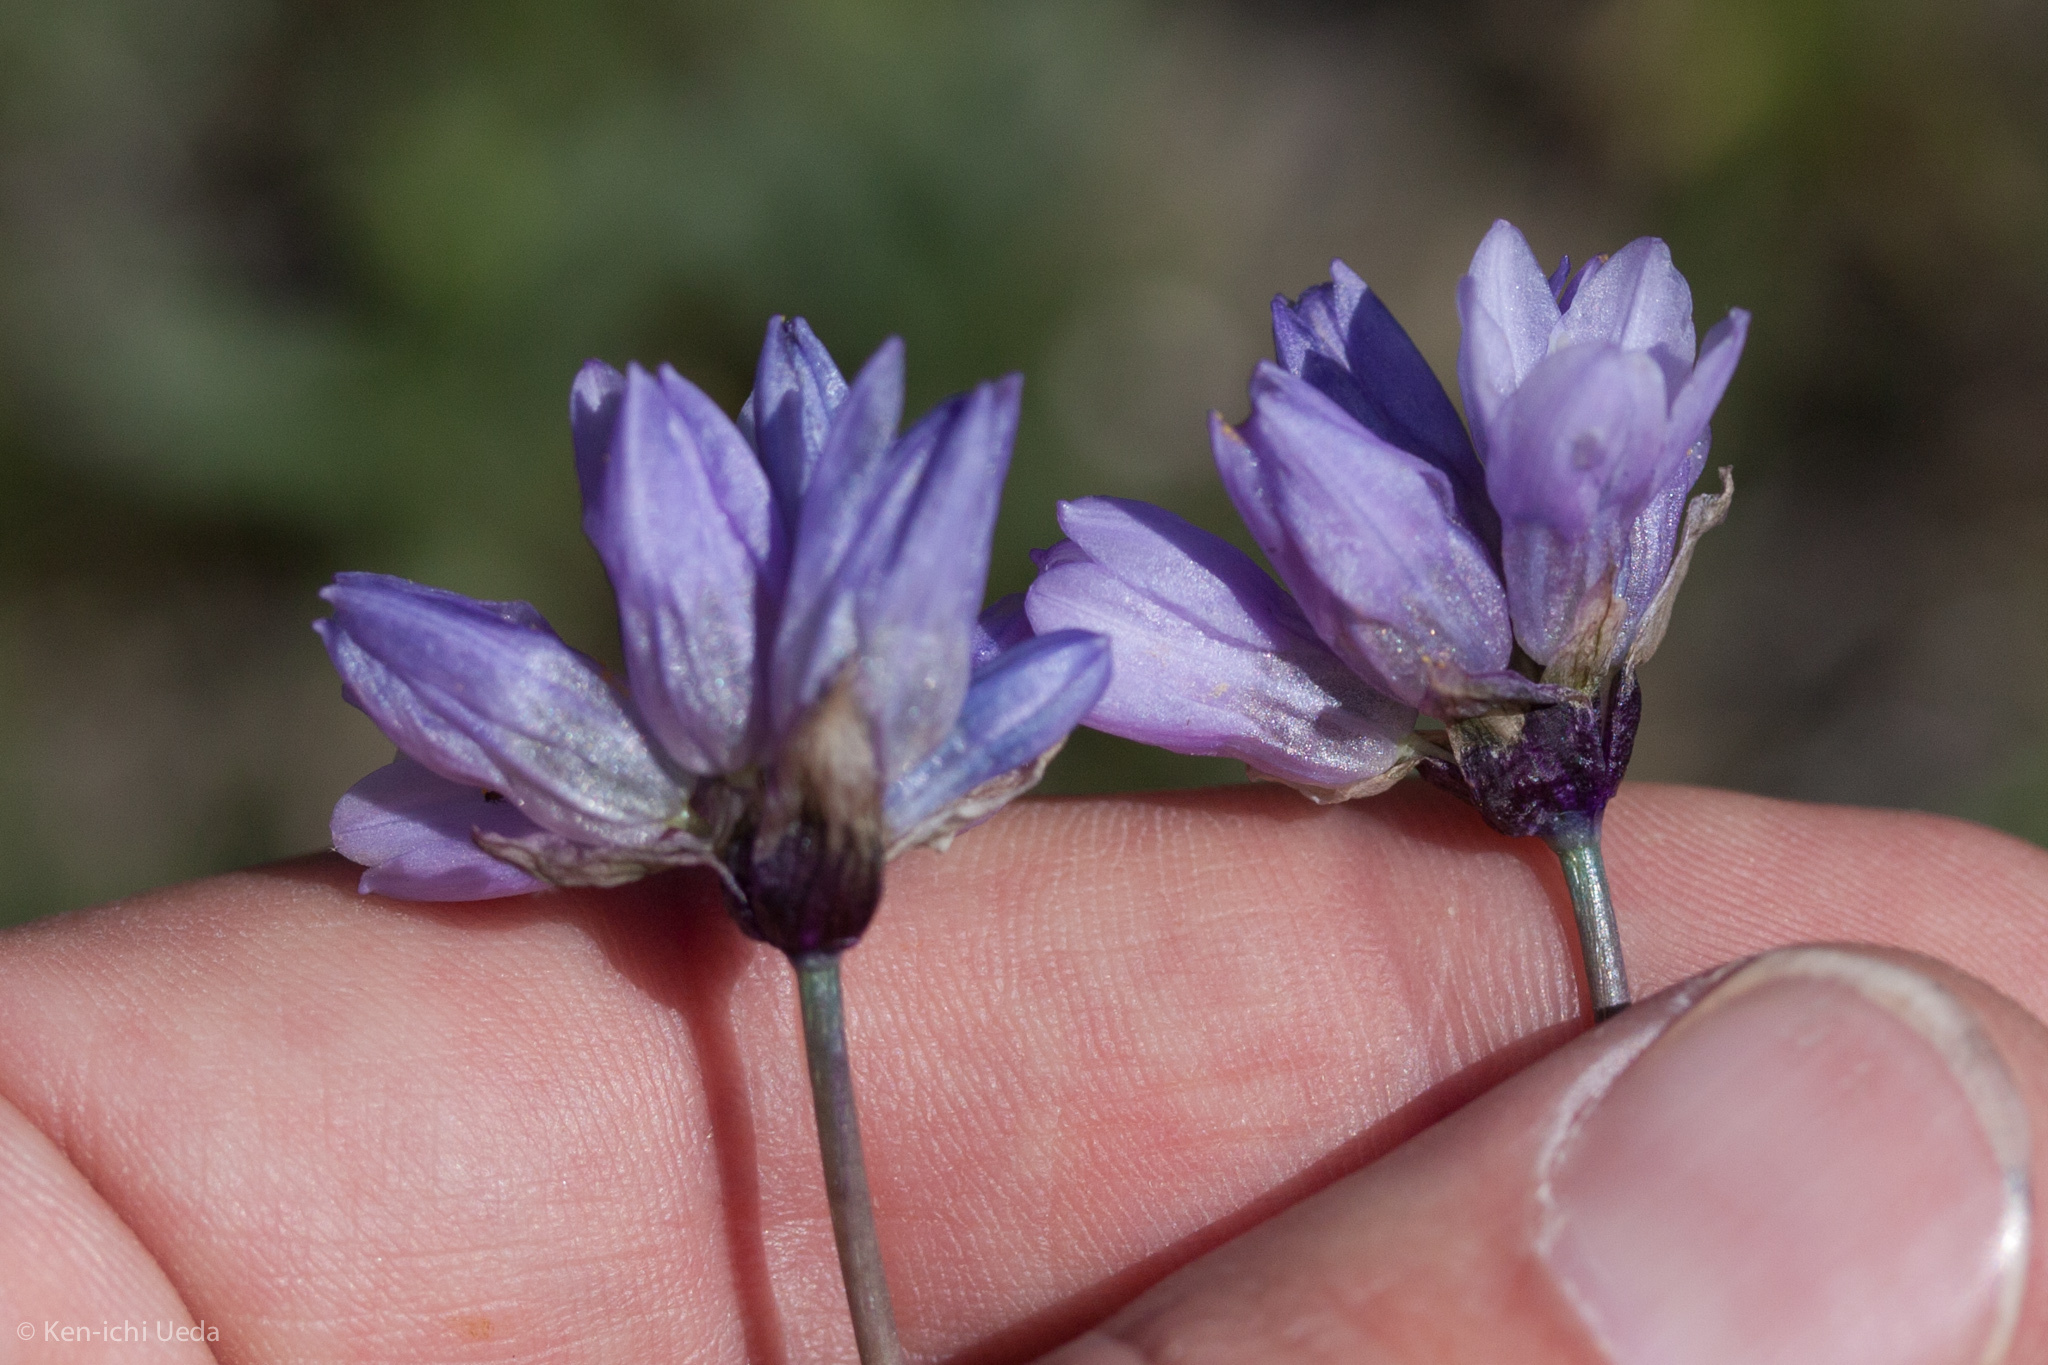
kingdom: Plantae
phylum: Tracheophyta
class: Liliopsida
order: Asparagales
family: Asparagaceae
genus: Dipterostemon
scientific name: Dipterostemon capitatus
